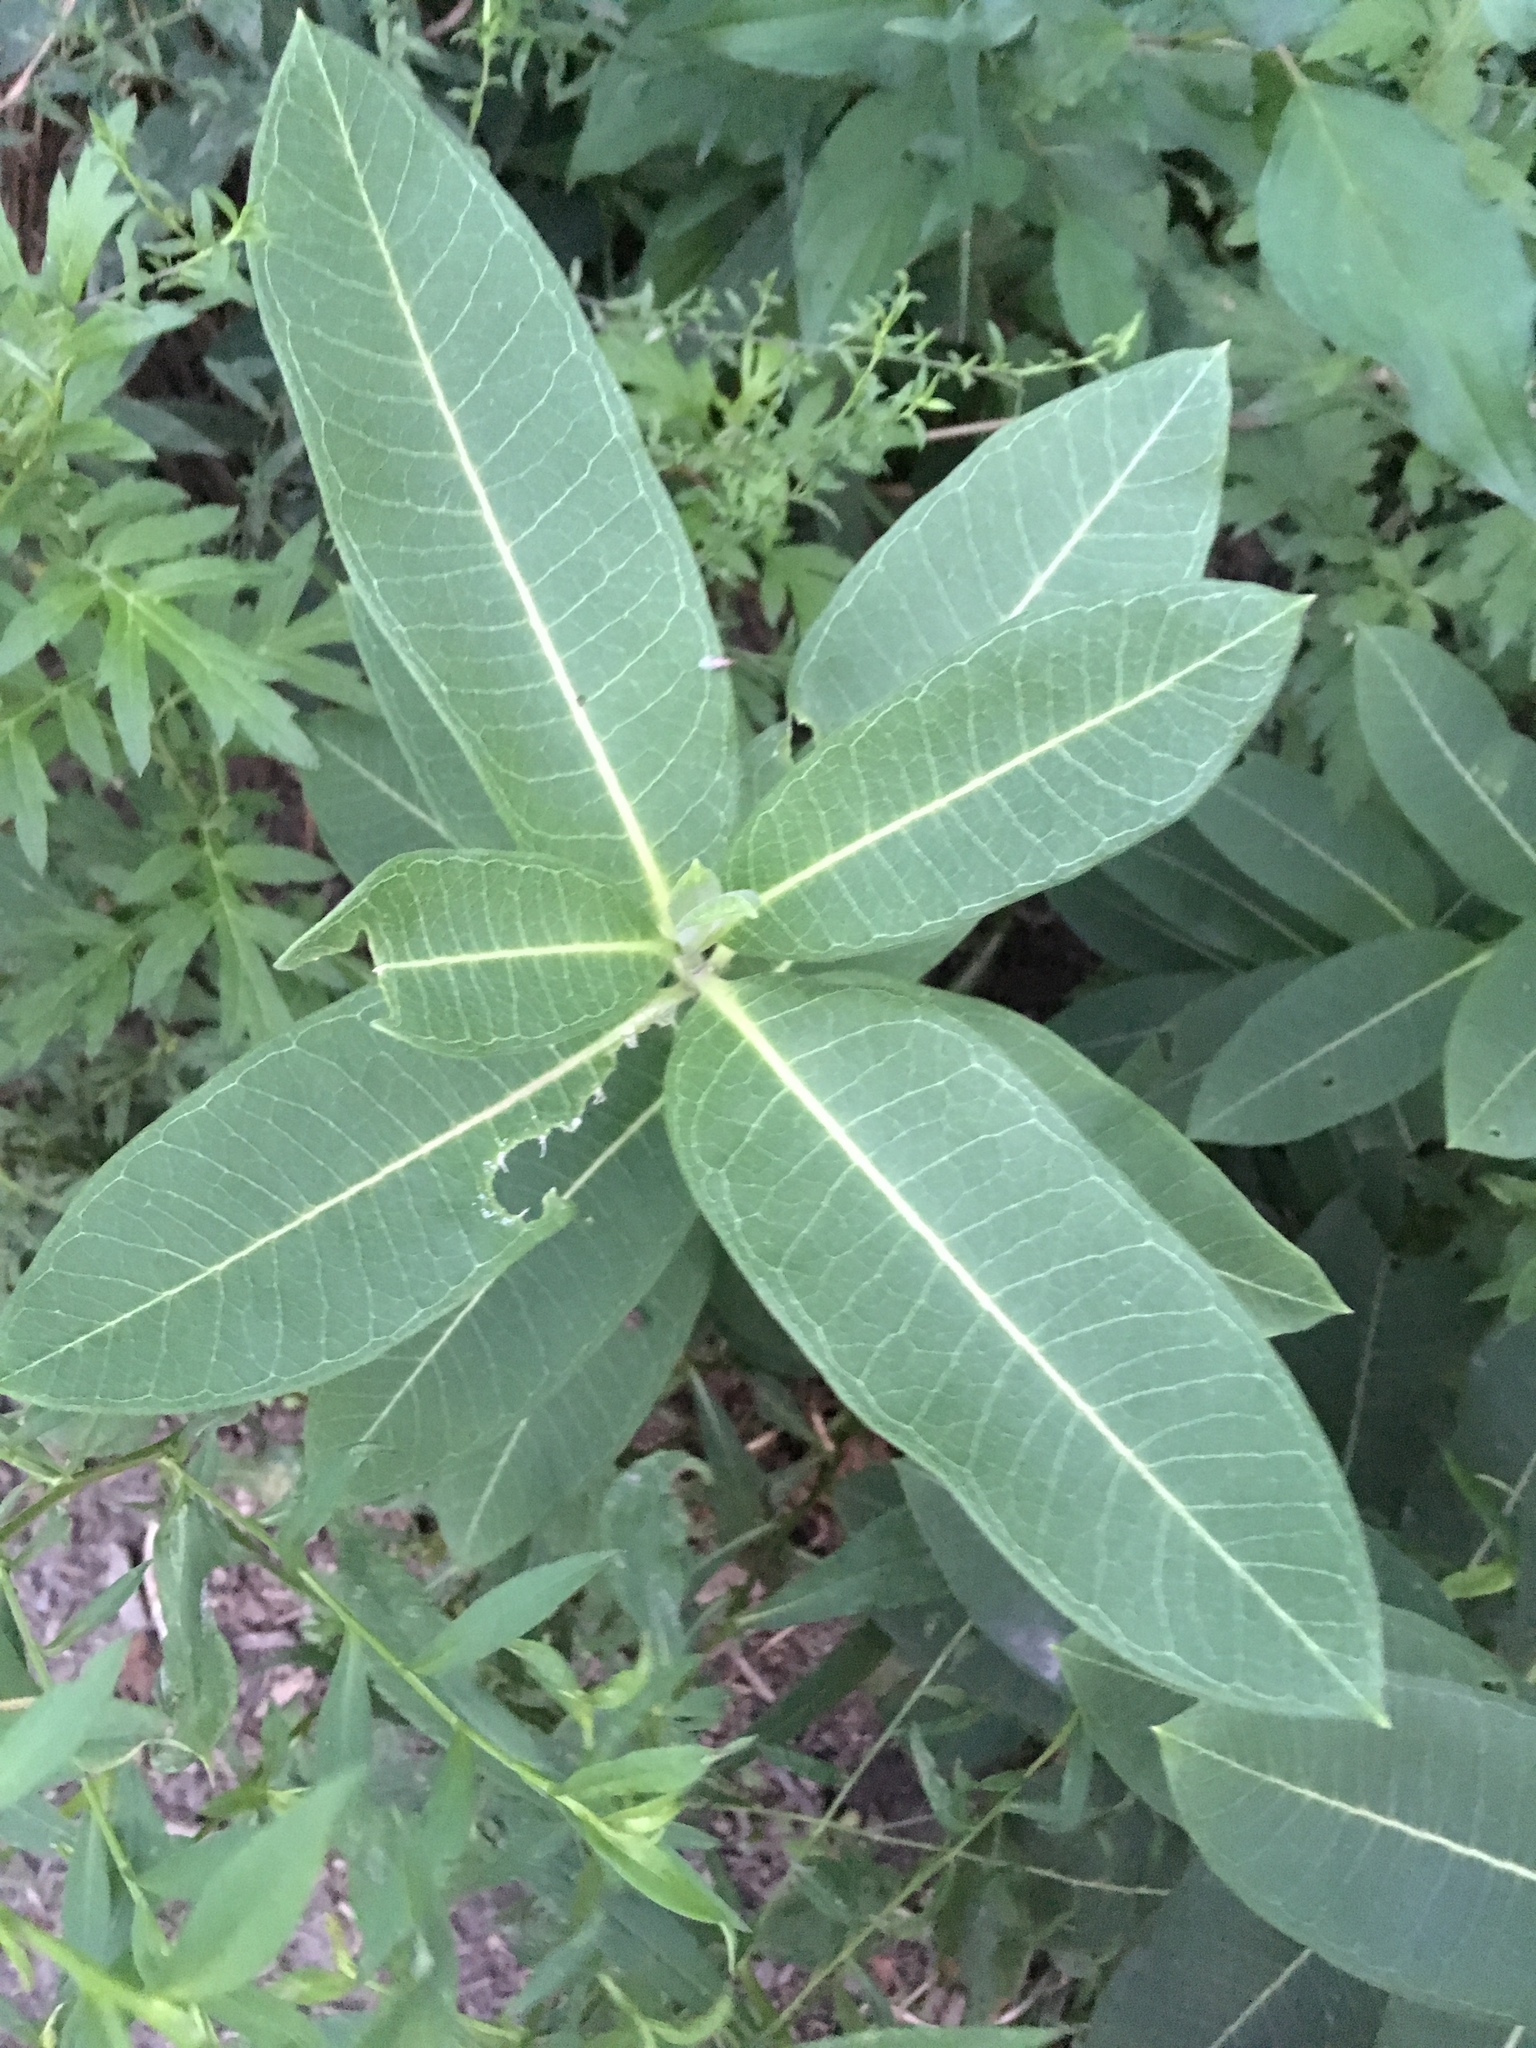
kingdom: Plantae
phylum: Tracheophyta
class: Magnoliopsida
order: Gentianales
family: Apocynaceae
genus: Asclepias
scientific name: Asclepias syriaca
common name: Common milkweed
